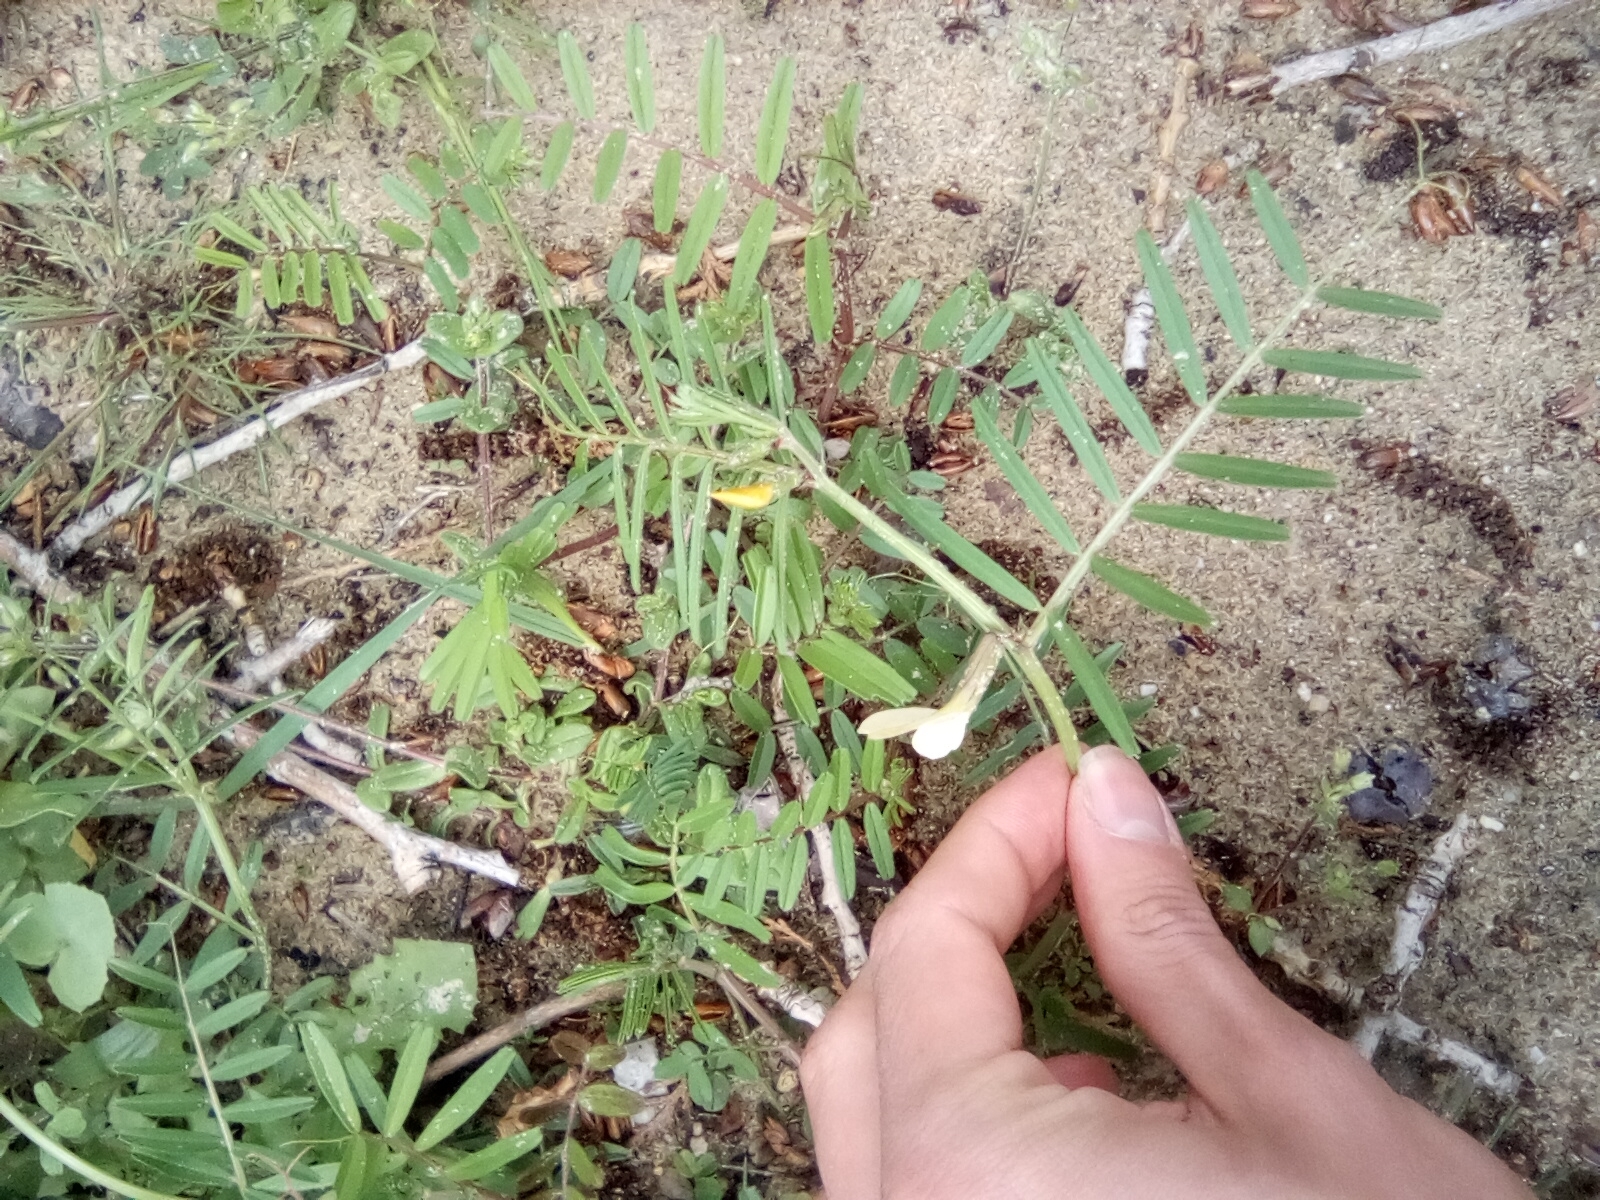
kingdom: Plantae
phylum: Tracheophyta
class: Magnoliopsida
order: Fabales
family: Fabaceae
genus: Vicia
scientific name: Vicia grandiflora
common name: Large yellow vetch
